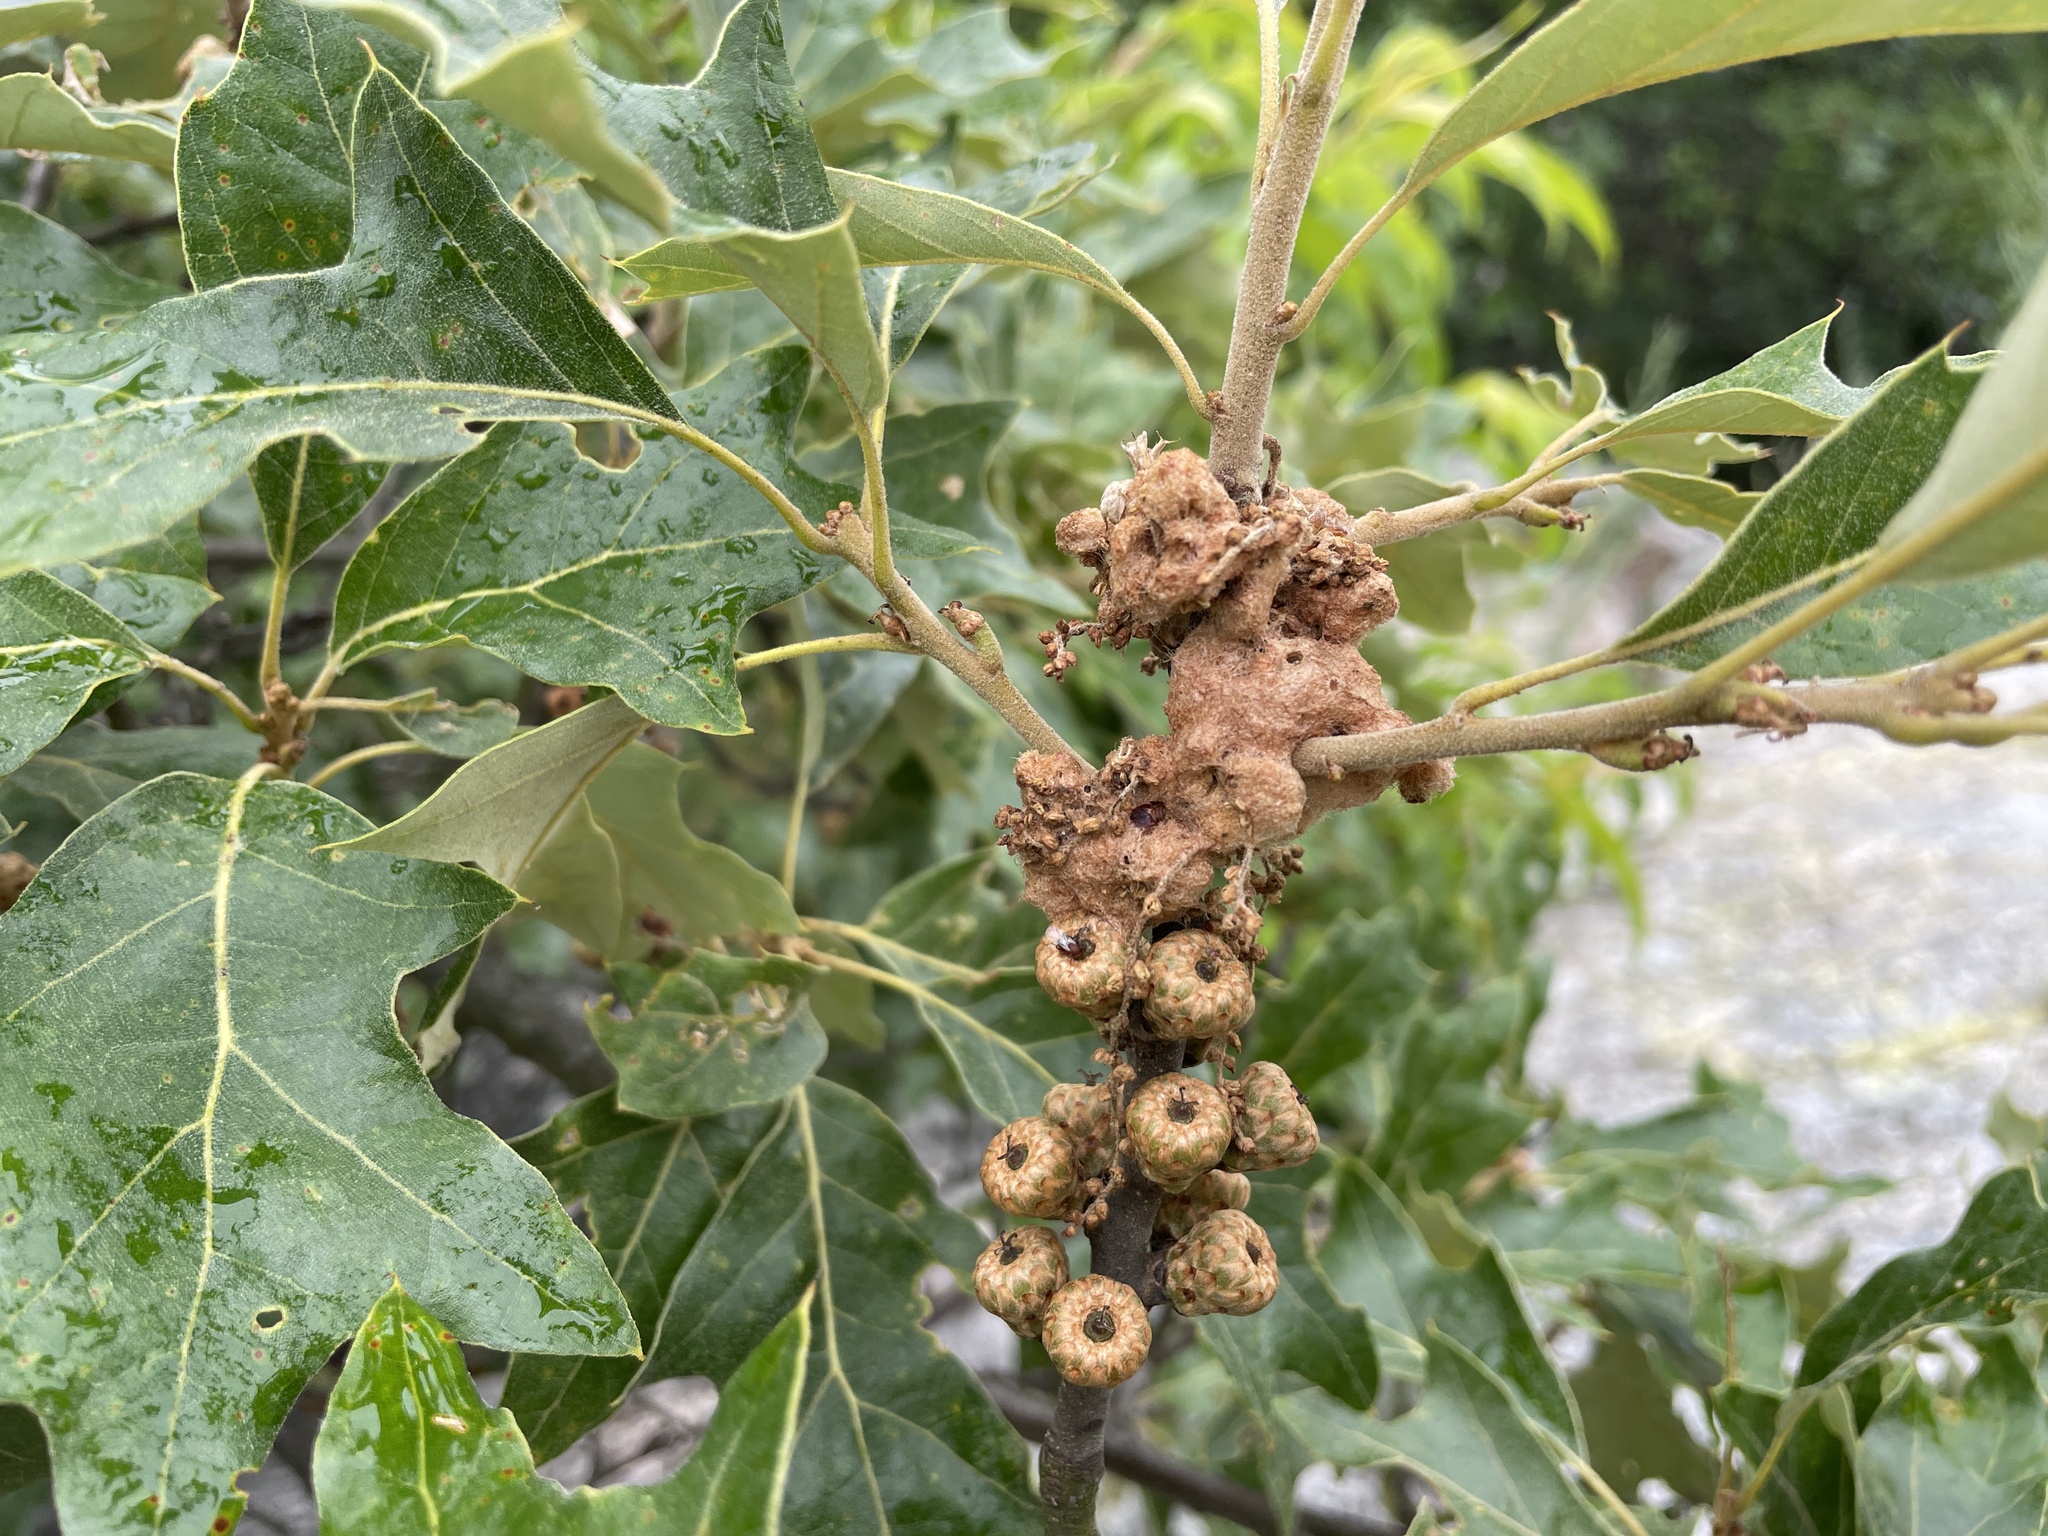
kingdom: Plantae
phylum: Tracheophyta
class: Magnoliopsida
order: Fagales
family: Fagaceae
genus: Quercus
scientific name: Quercus ilicifolia
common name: Bear oak
